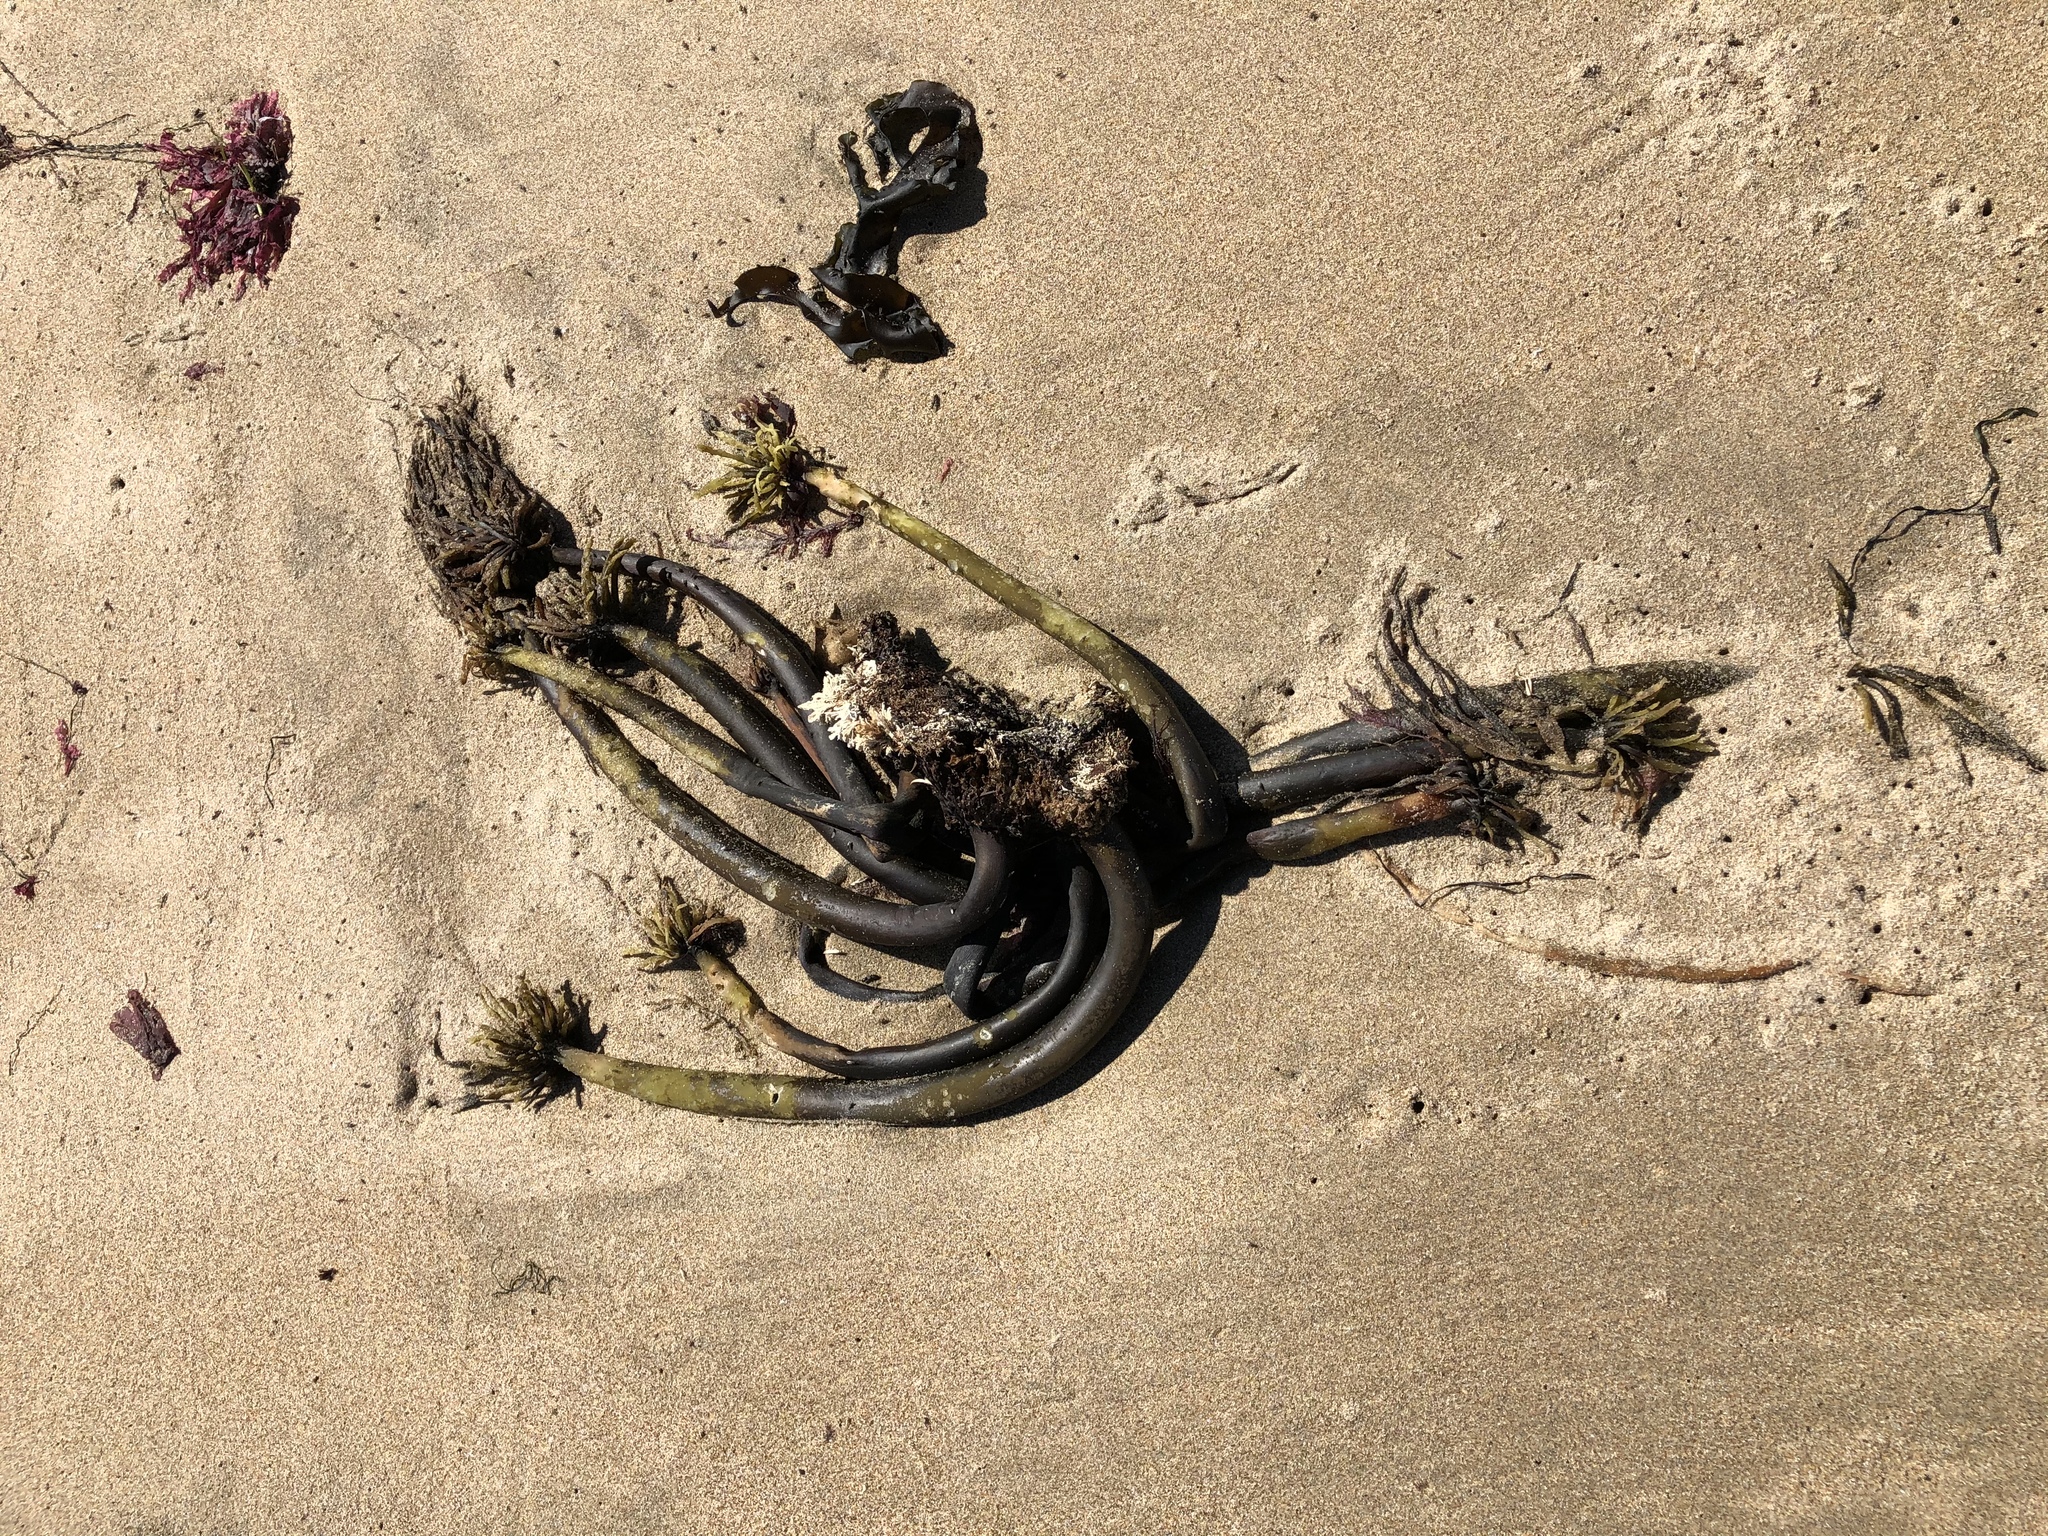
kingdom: Chromista
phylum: Ochrophyta
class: Phaeophyceae
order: Laminariales
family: Laminariaceae
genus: Postelsia
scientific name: Postelsia palmiformis
